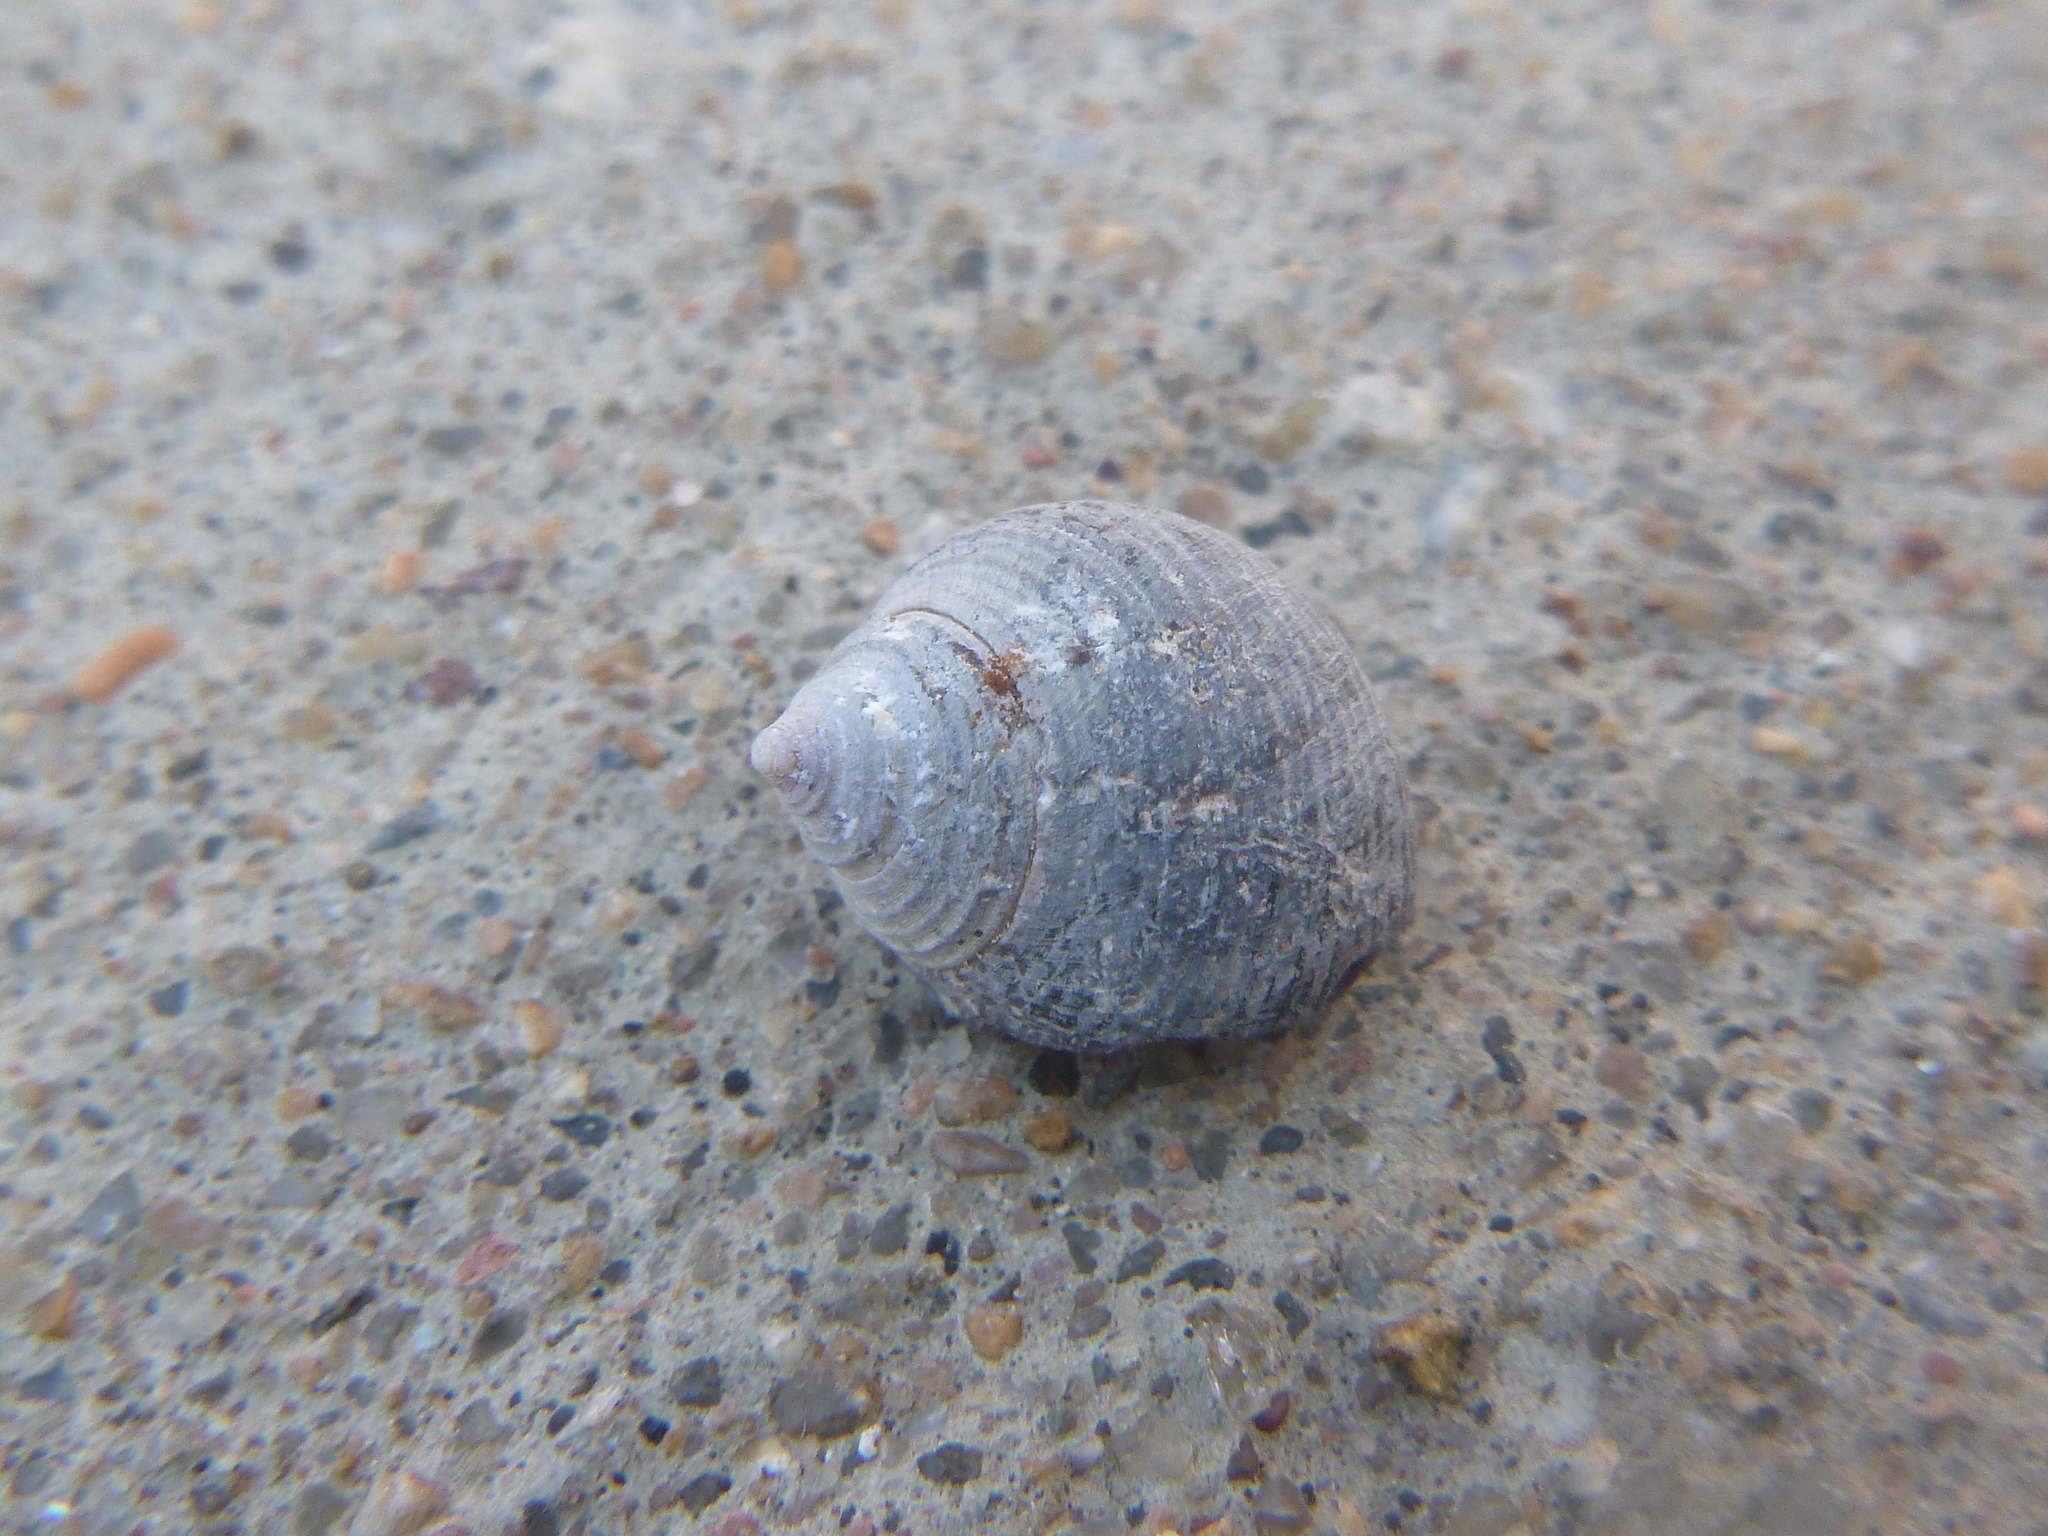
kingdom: Animalia
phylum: Mollusca
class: Gastropoda
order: Littorinimorpha
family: Littorinidae
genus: Littorina
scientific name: Littorina littorea
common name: Common periwinkle
